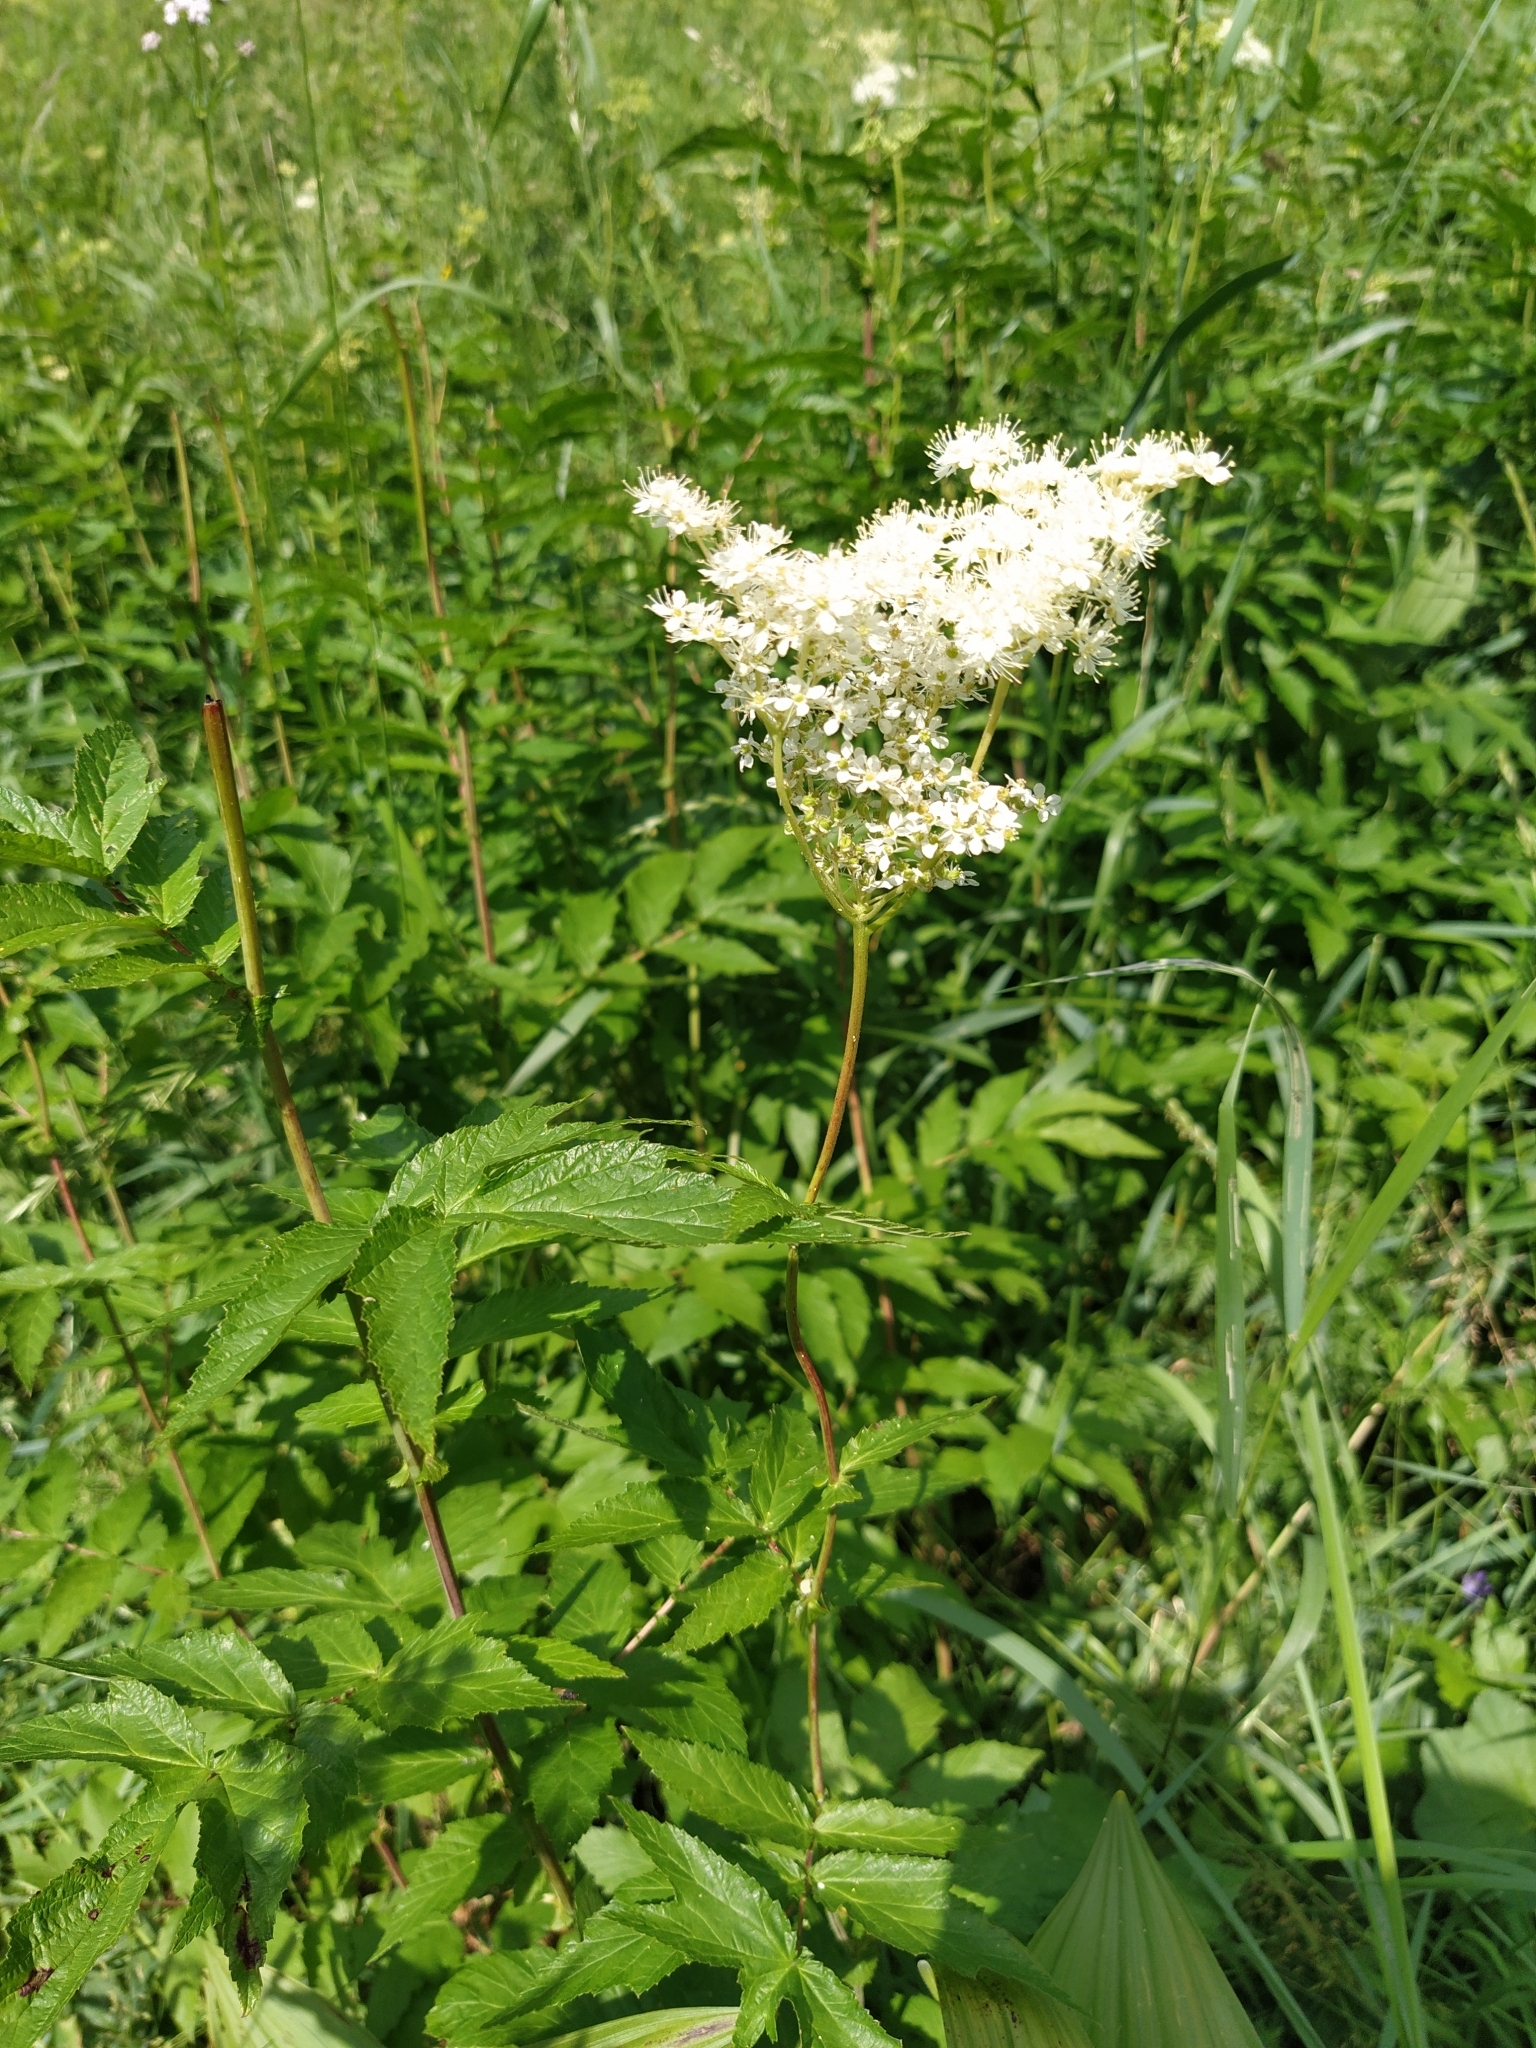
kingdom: Plantae
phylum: Tracheophyta
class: Magnoliopsida
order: Rosales
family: Rosaceae
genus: Filipendula
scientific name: Filipendula ulmaria
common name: Meadowsweet
